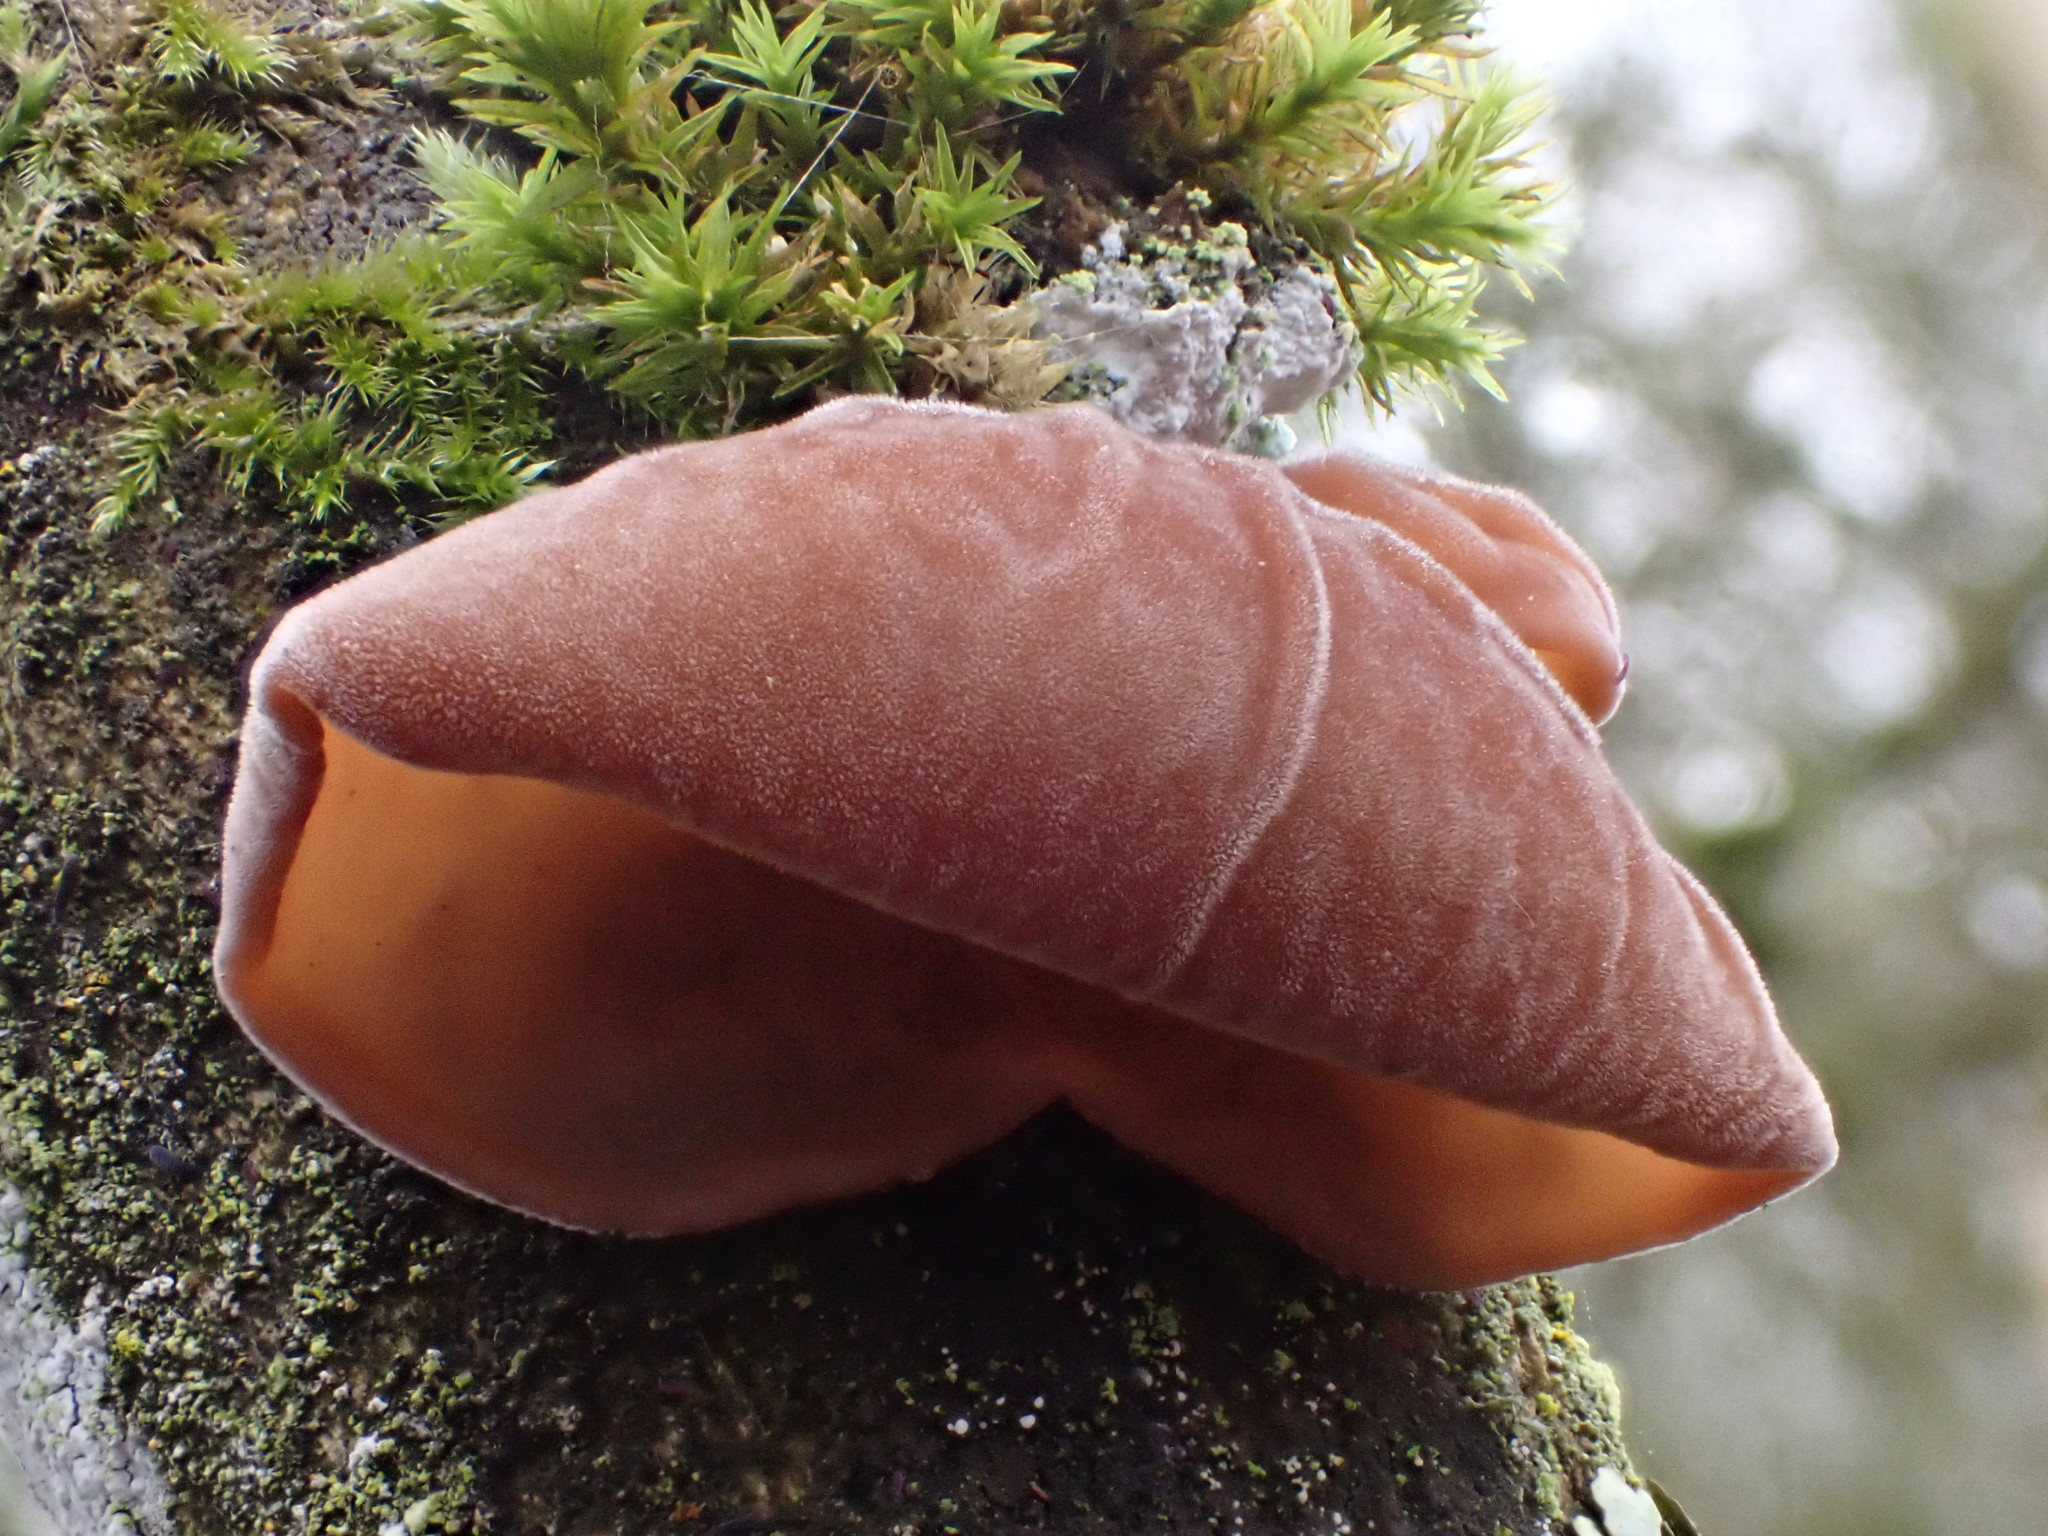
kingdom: Fungi
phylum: Basidiomycota
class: Agaricomycetes
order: Auriculariales
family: Auriculariaceae
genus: Auricularia
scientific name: Auricularia auricula-judae
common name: Jelly ear
